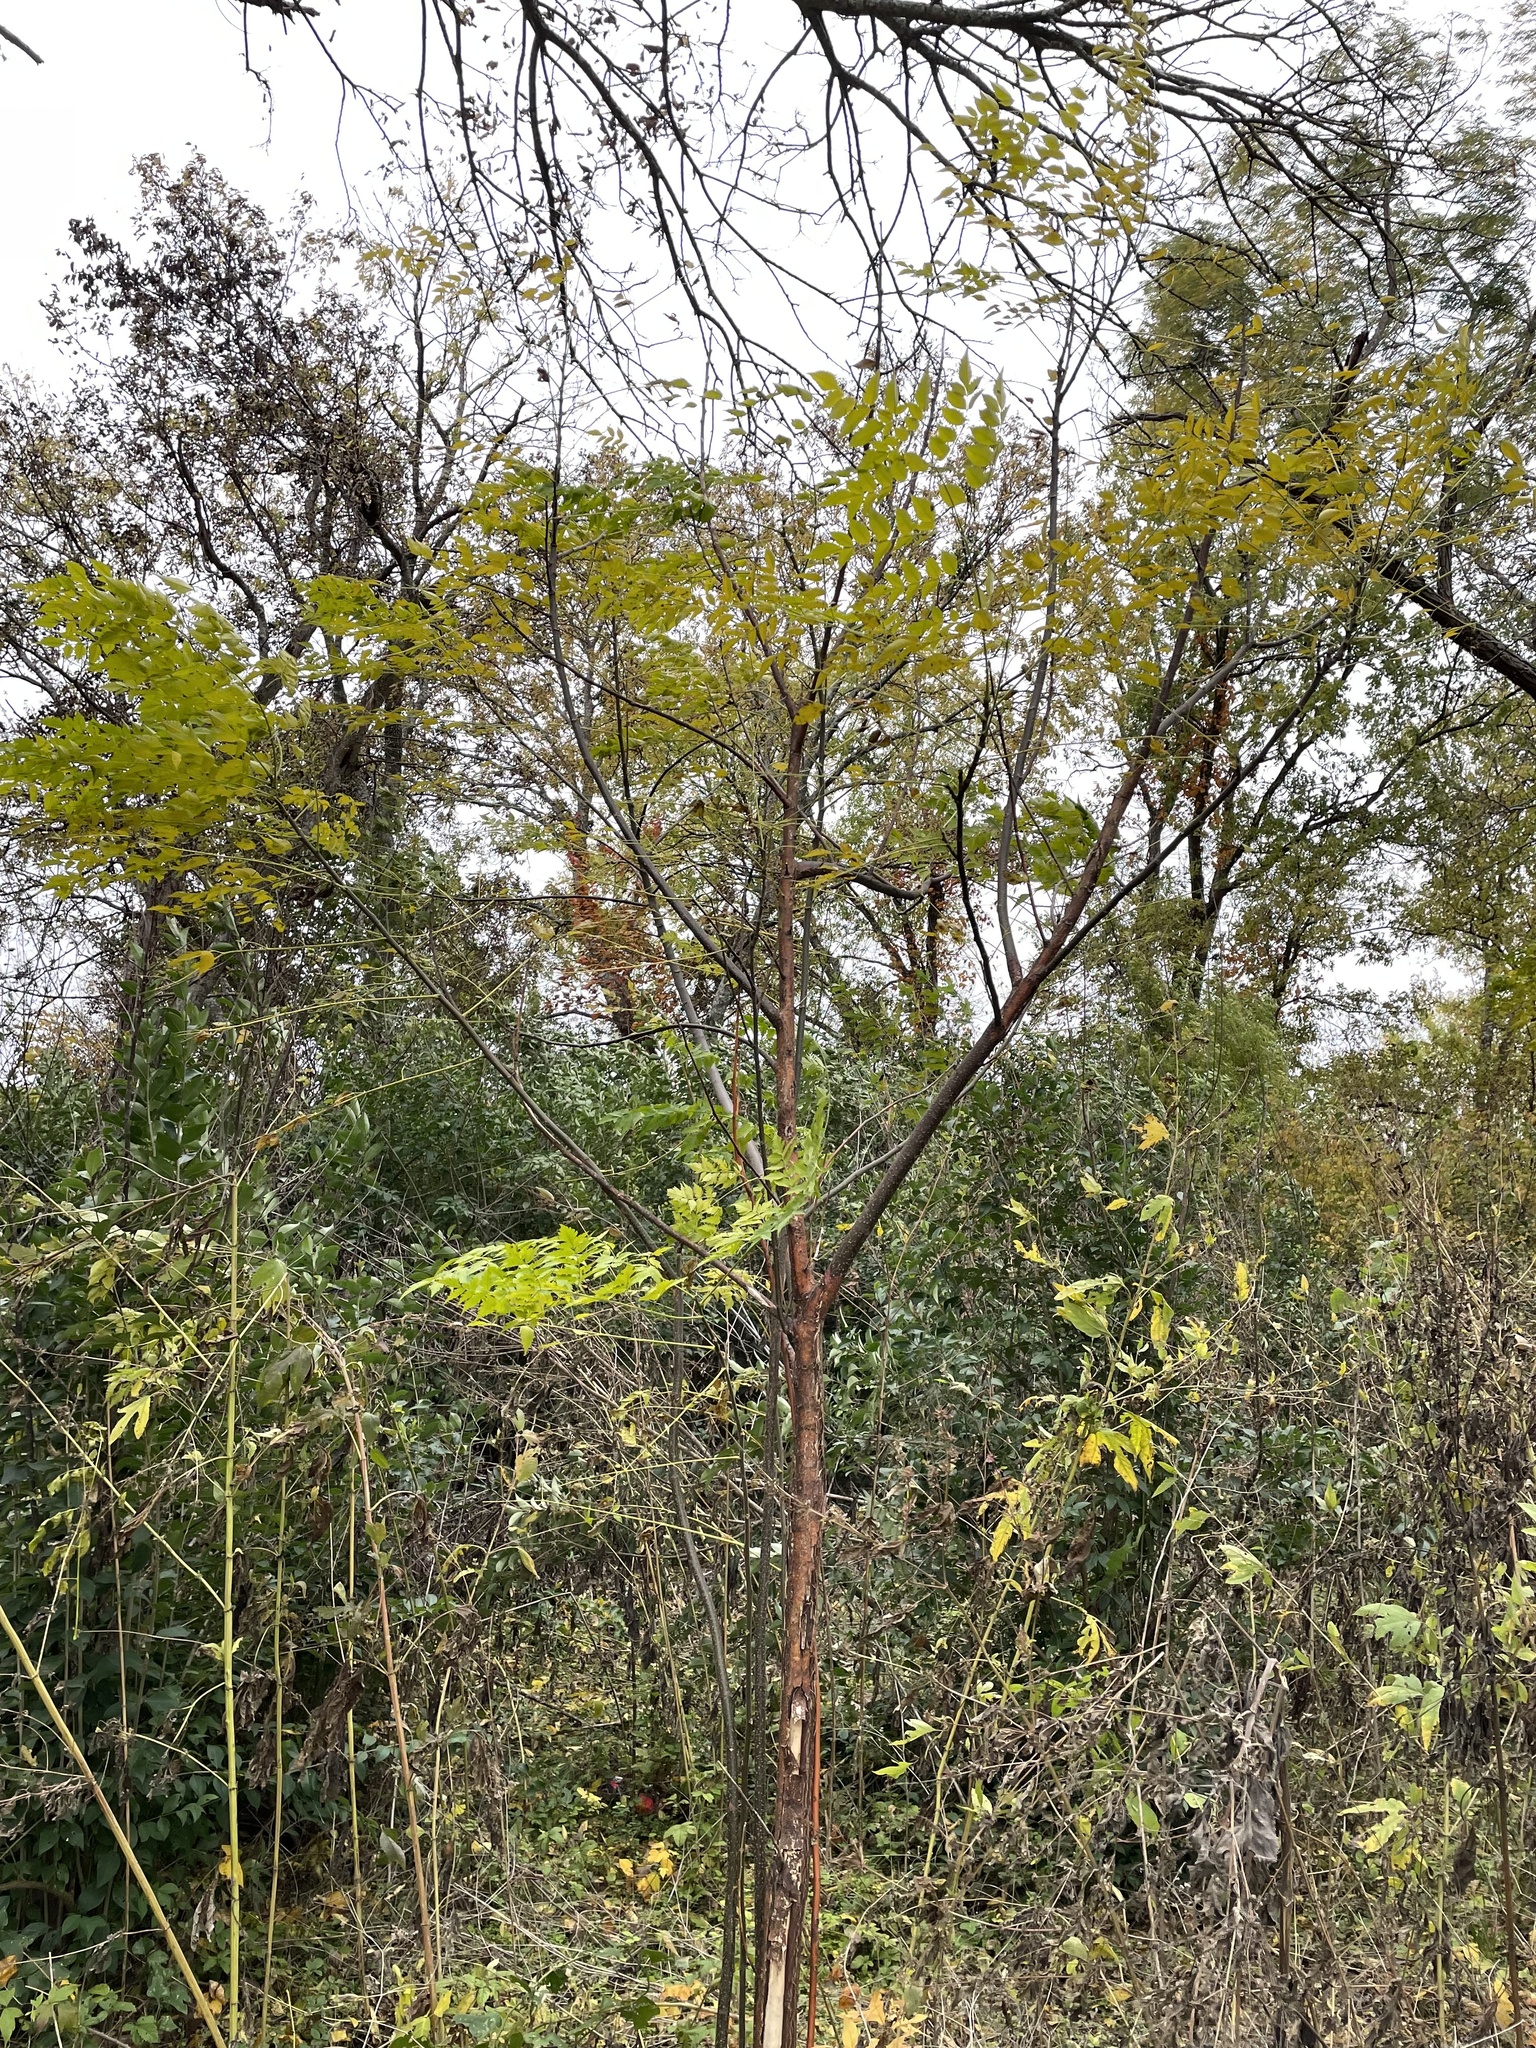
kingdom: Plantae
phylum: Tracheophyta
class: Magnoliopsida
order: Sapindales
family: Meliaceae
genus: Melia
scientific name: Melia azedarach
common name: Chinaberrytree
